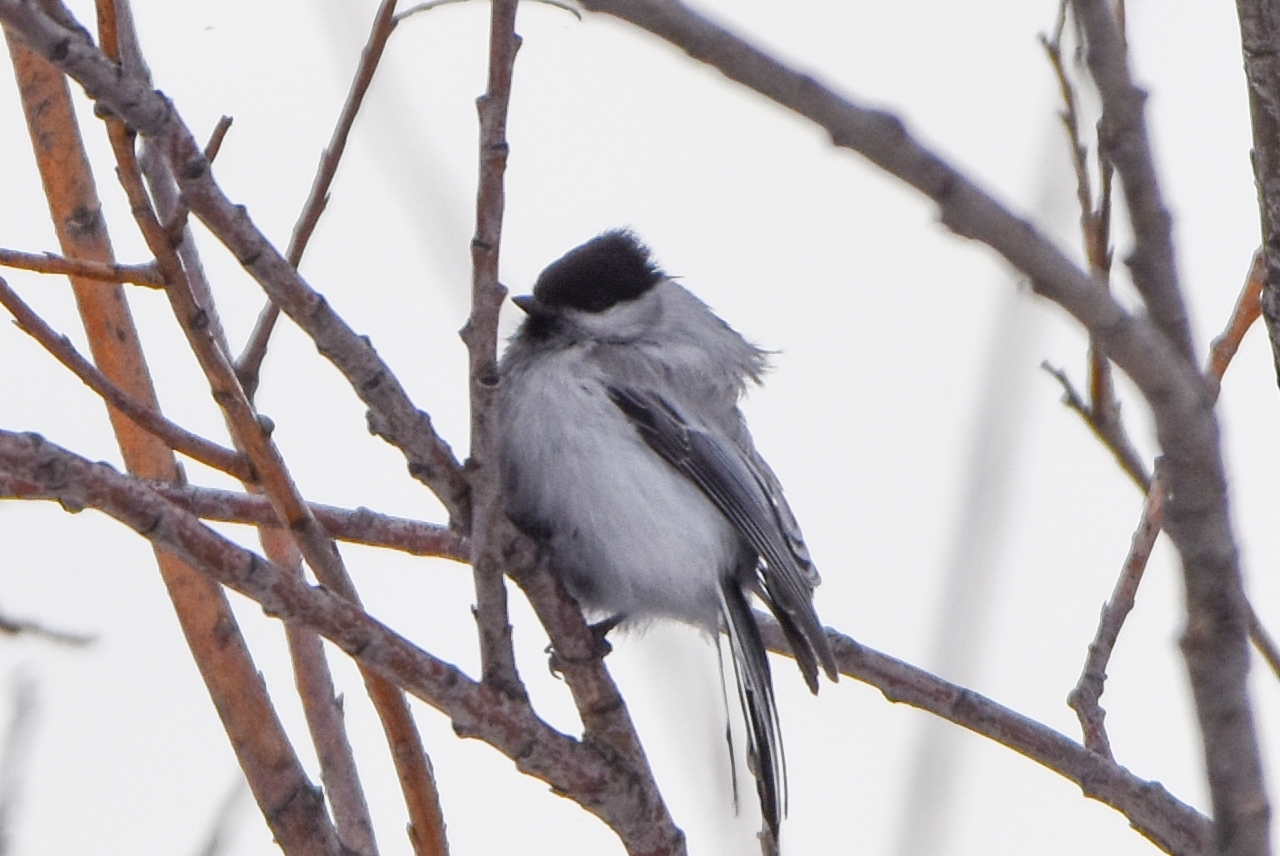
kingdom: Animalia
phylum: Chordata
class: Aves
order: Passeriformes
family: Paridae
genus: Poecile
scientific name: Poecile montanus
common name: Willow tit
